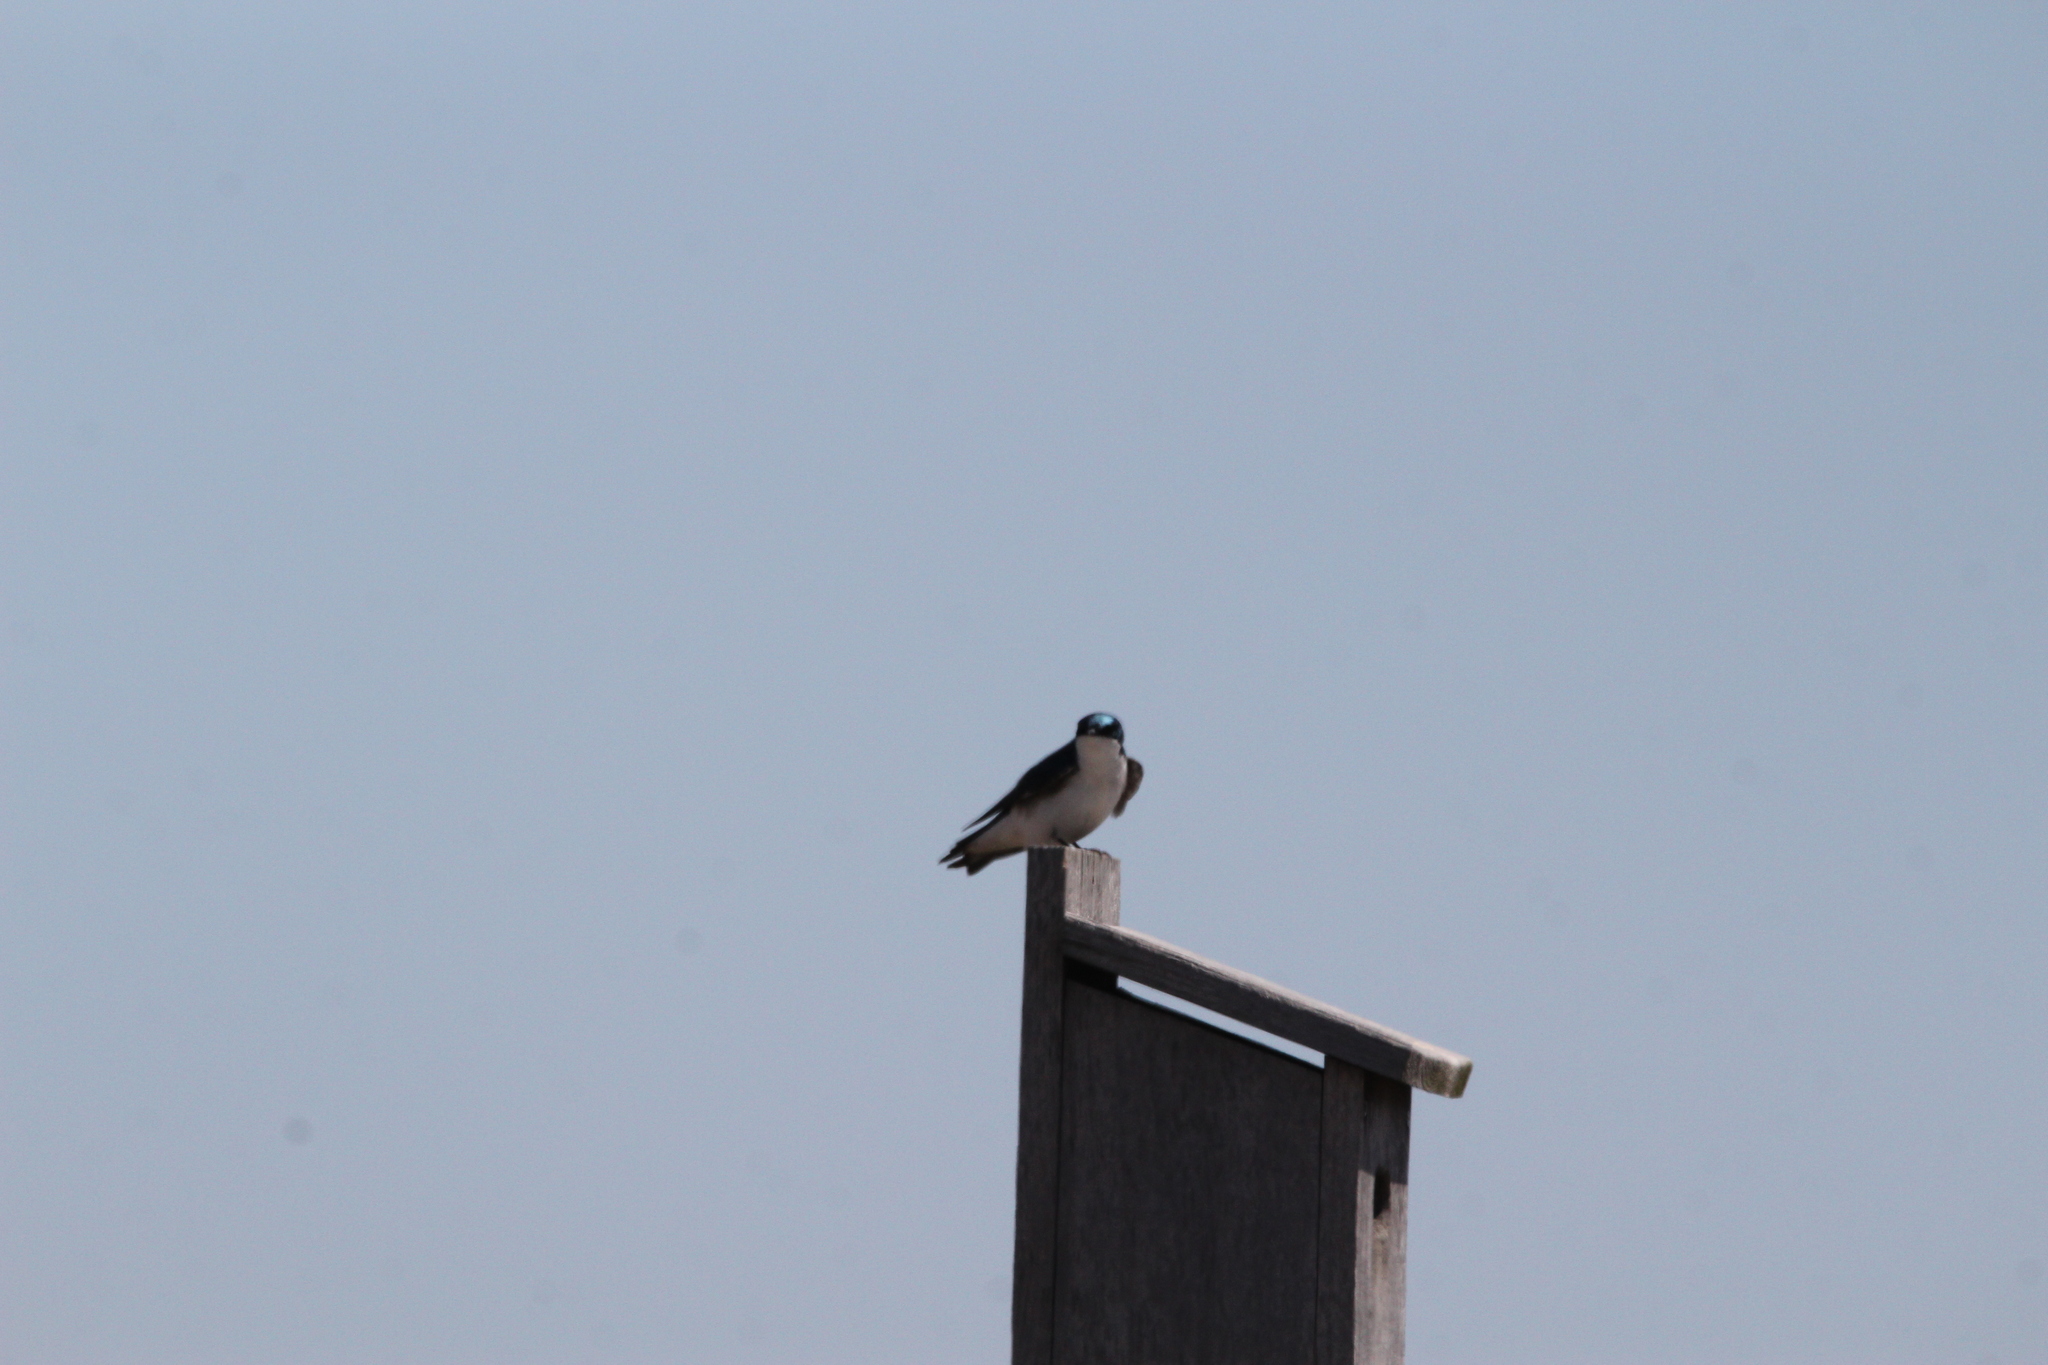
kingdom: Animalia
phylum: Chordata
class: Aves
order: Passeriformes
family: Hirundinidae
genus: Tachycineta
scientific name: Tachycineta bicolor
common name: Tree swallow
